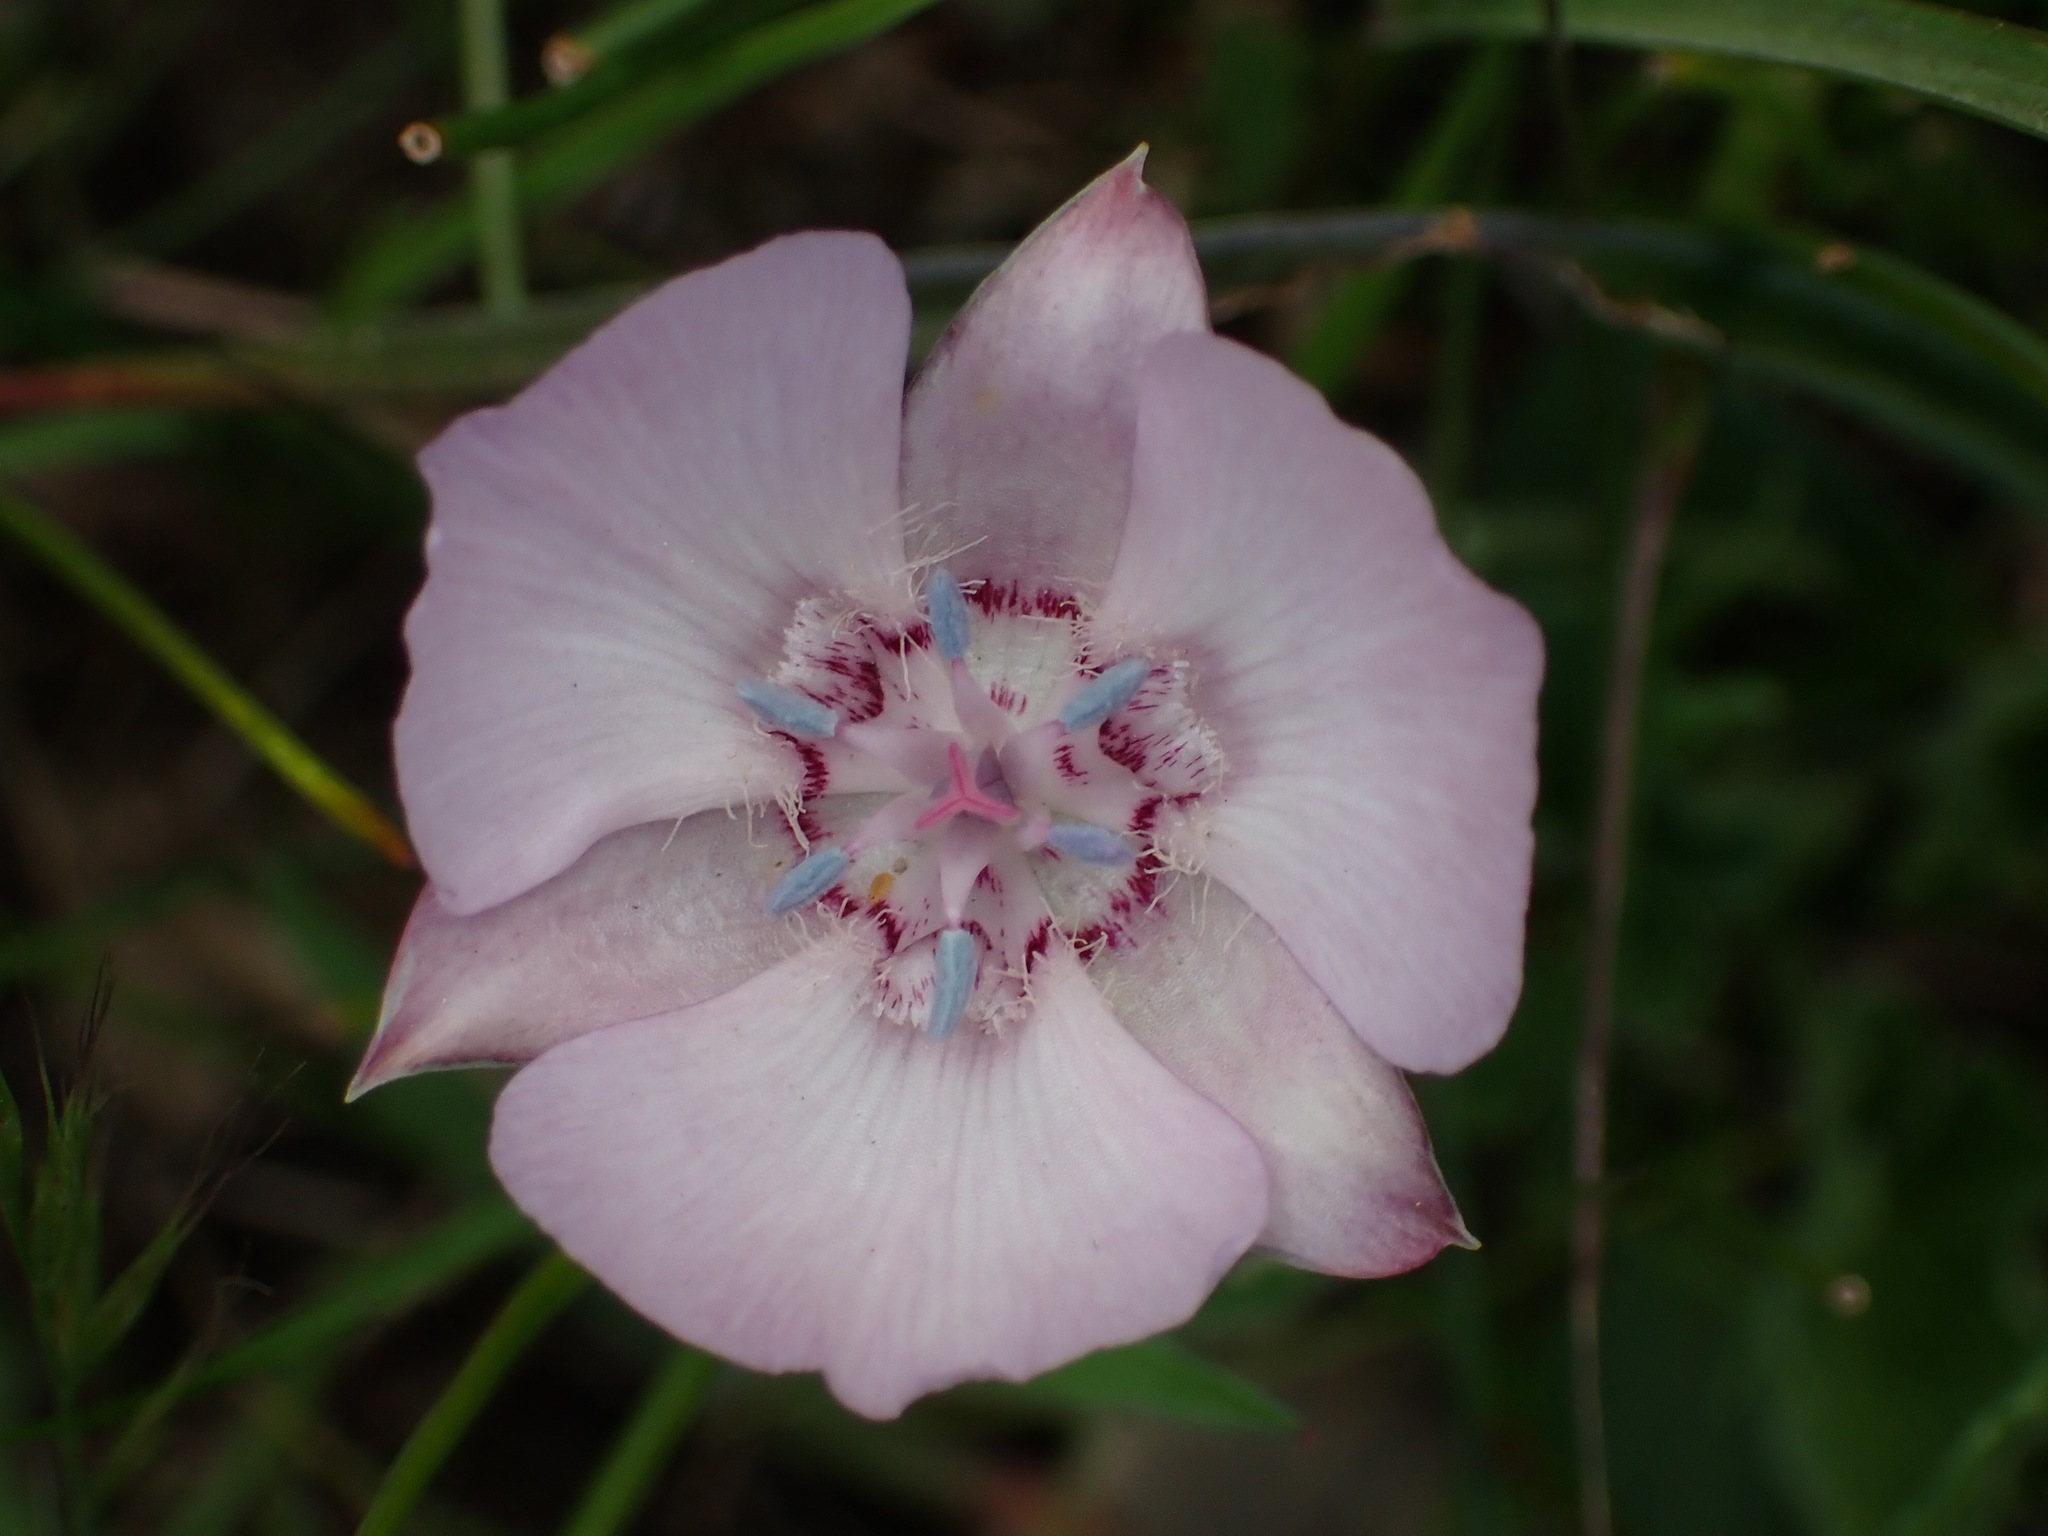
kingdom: Plantae
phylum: Tracheophyta
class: Liliopsida
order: Liliales
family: Liliaceae
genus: Calochortus
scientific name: Calochortus umbellatus
